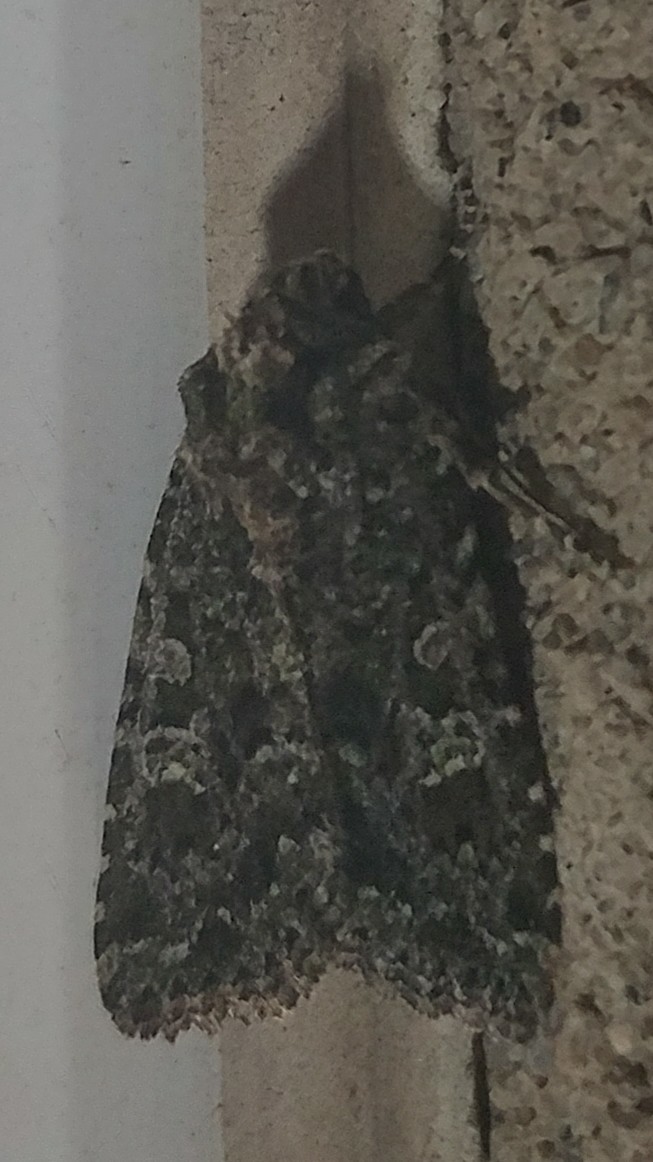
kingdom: Animalia
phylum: Arthropoda
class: Insecta
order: Lepidoptera
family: Noctuidae
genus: Aseptis
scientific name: Aseptis marina
